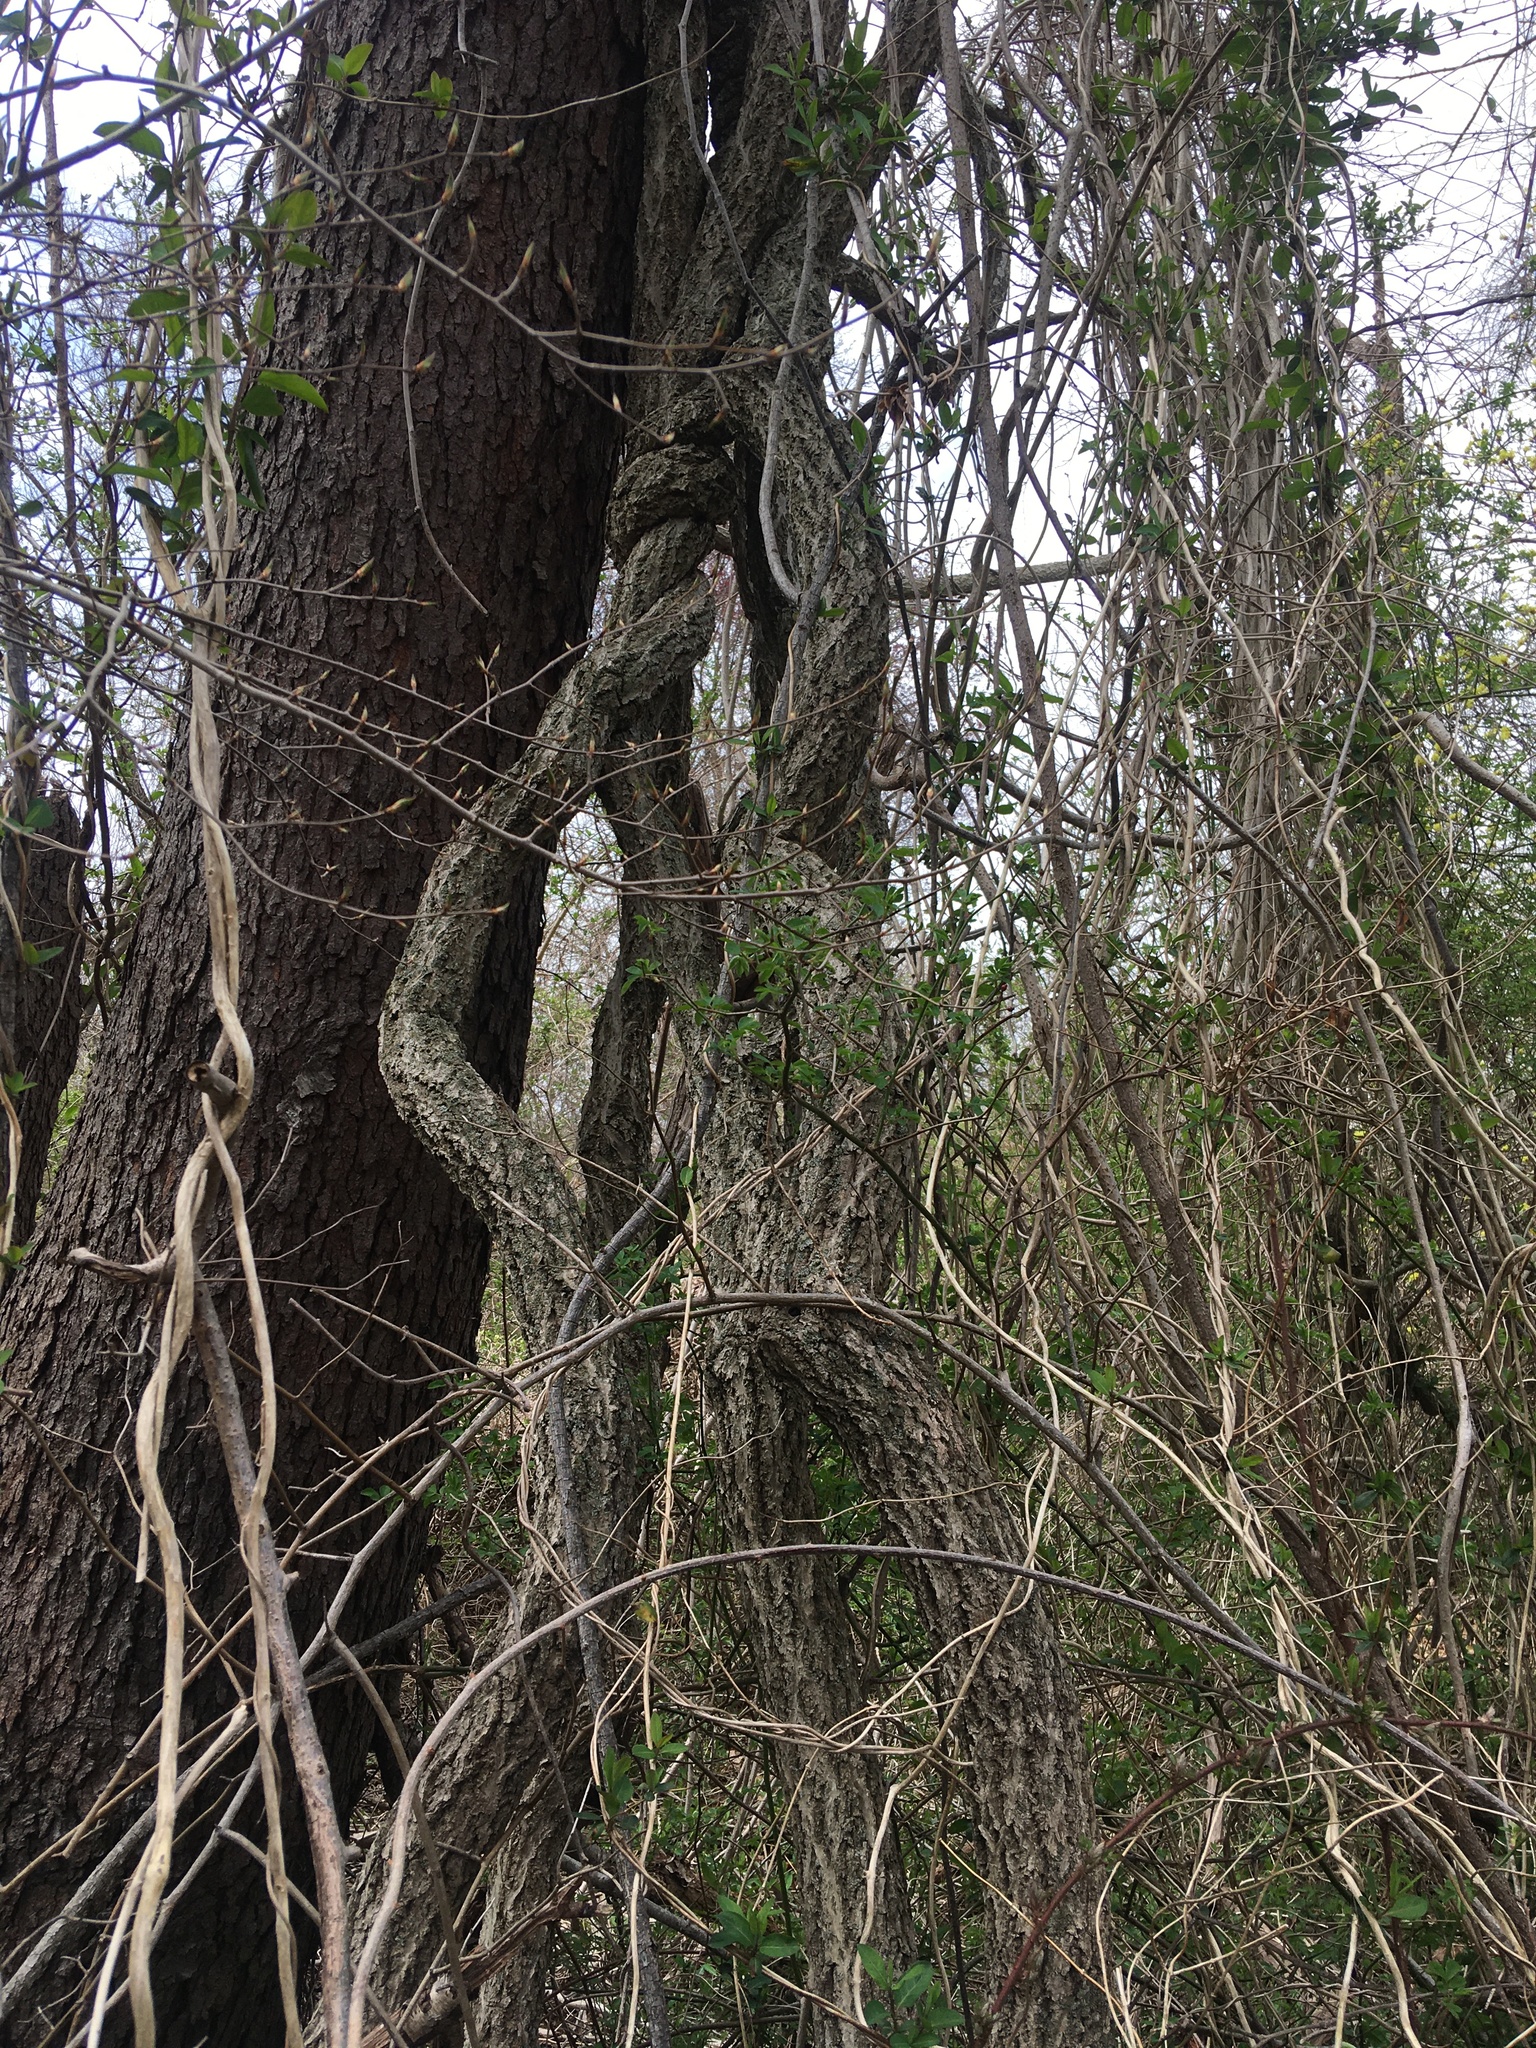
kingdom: Plantae
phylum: Tracheophyta
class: Magnoliopsida
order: Celastrales
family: Celastraceae
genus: Celastrus
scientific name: Celastrus orbiculatus
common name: Oriental bittersweet
